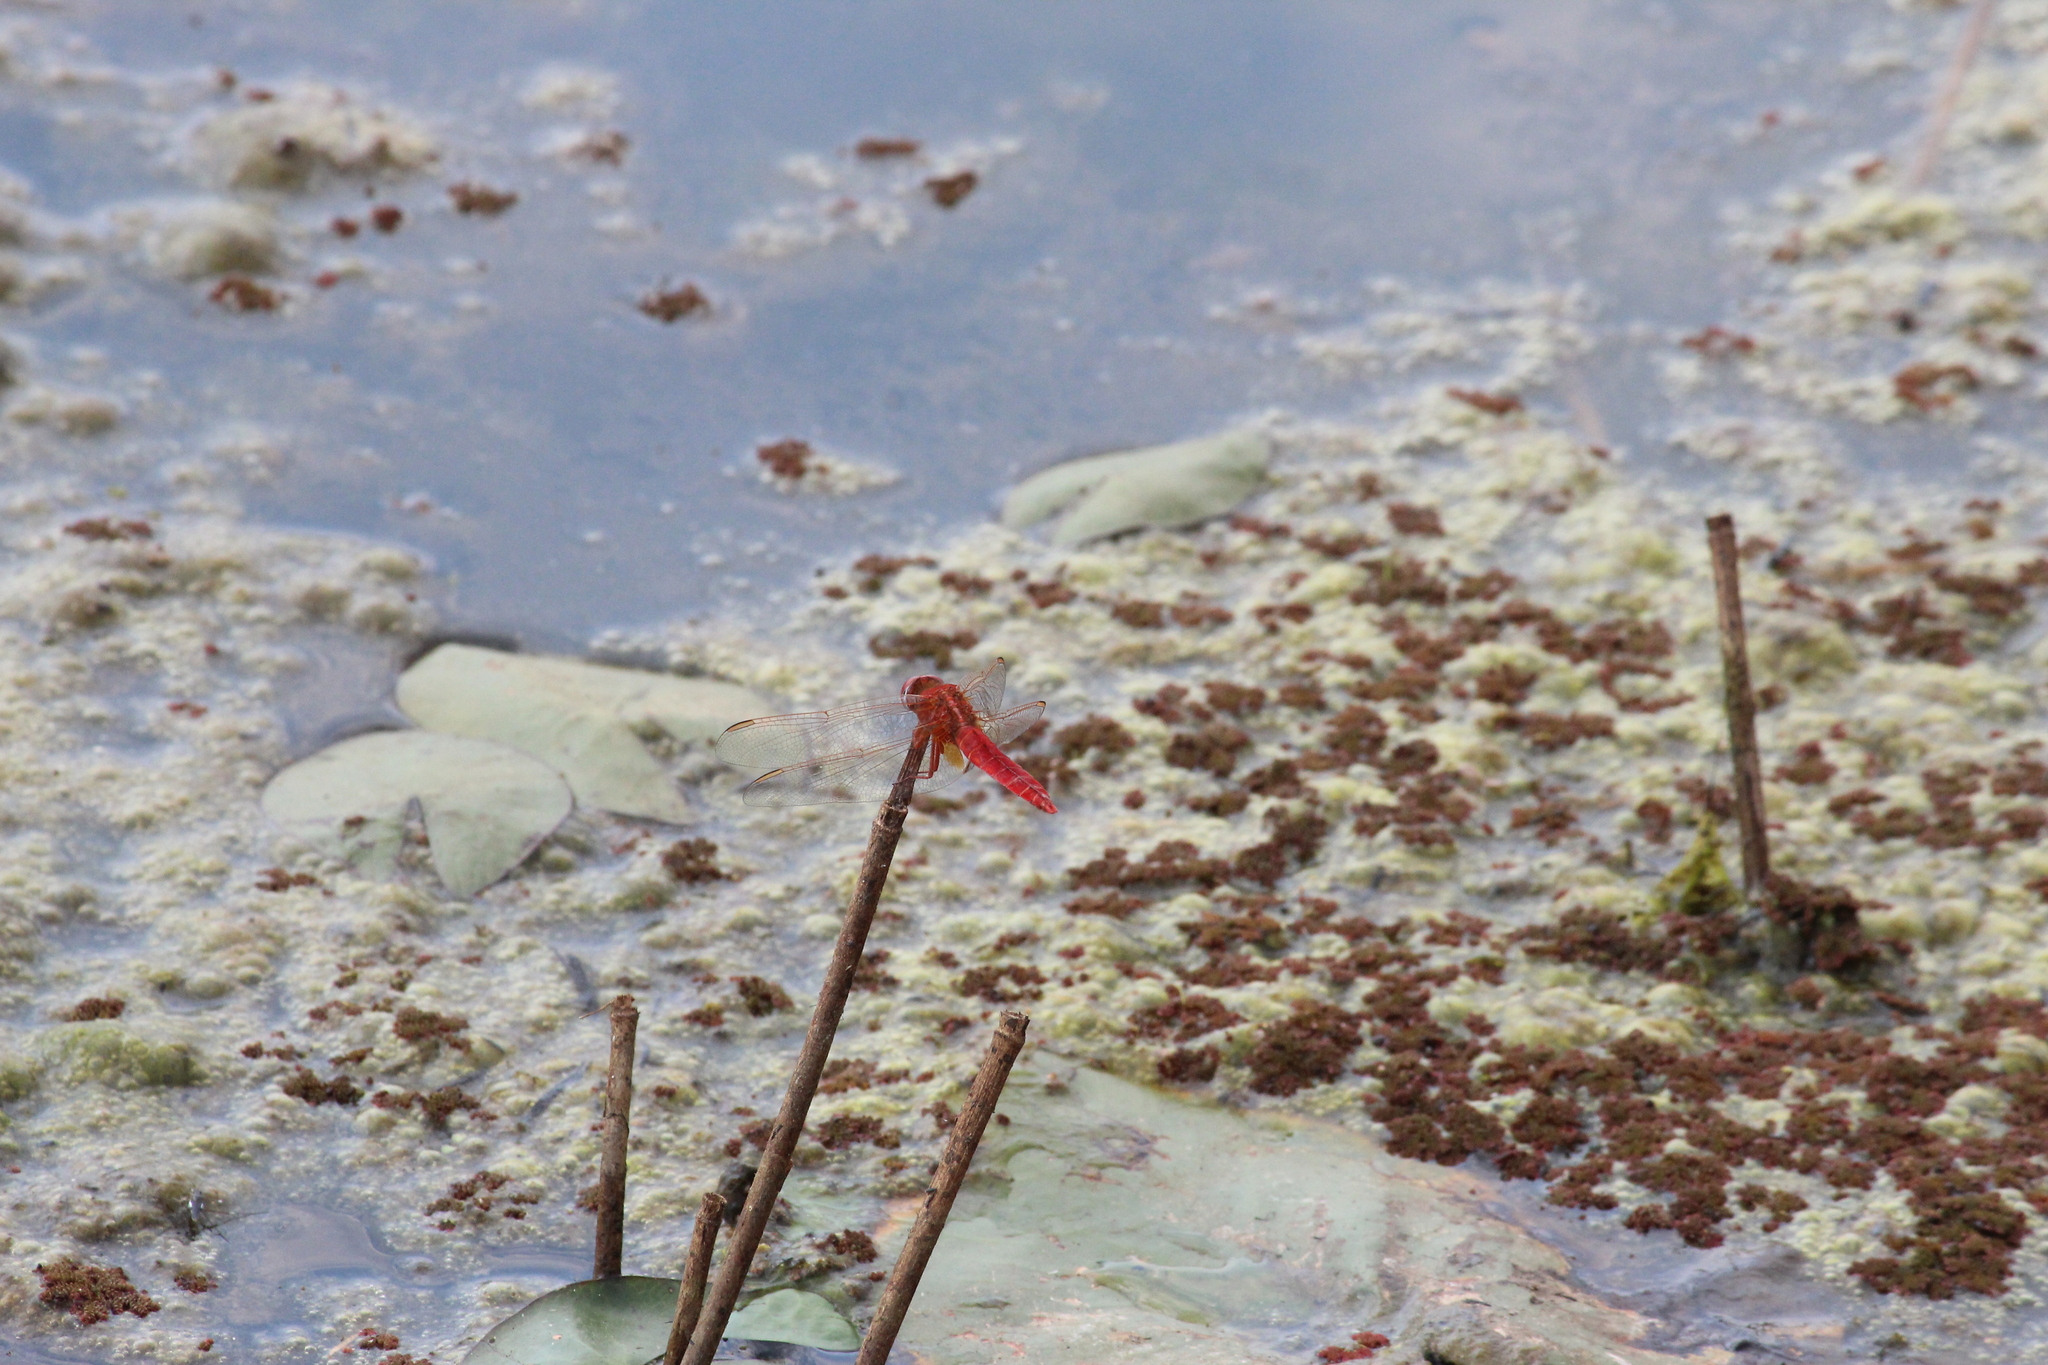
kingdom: Animalia
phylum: Arthropoda
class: Insecta
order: Odonata
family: Libellulidae
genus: Crocothemis
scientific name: Crocothemis erythraea
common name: Scarlet dragonfly
